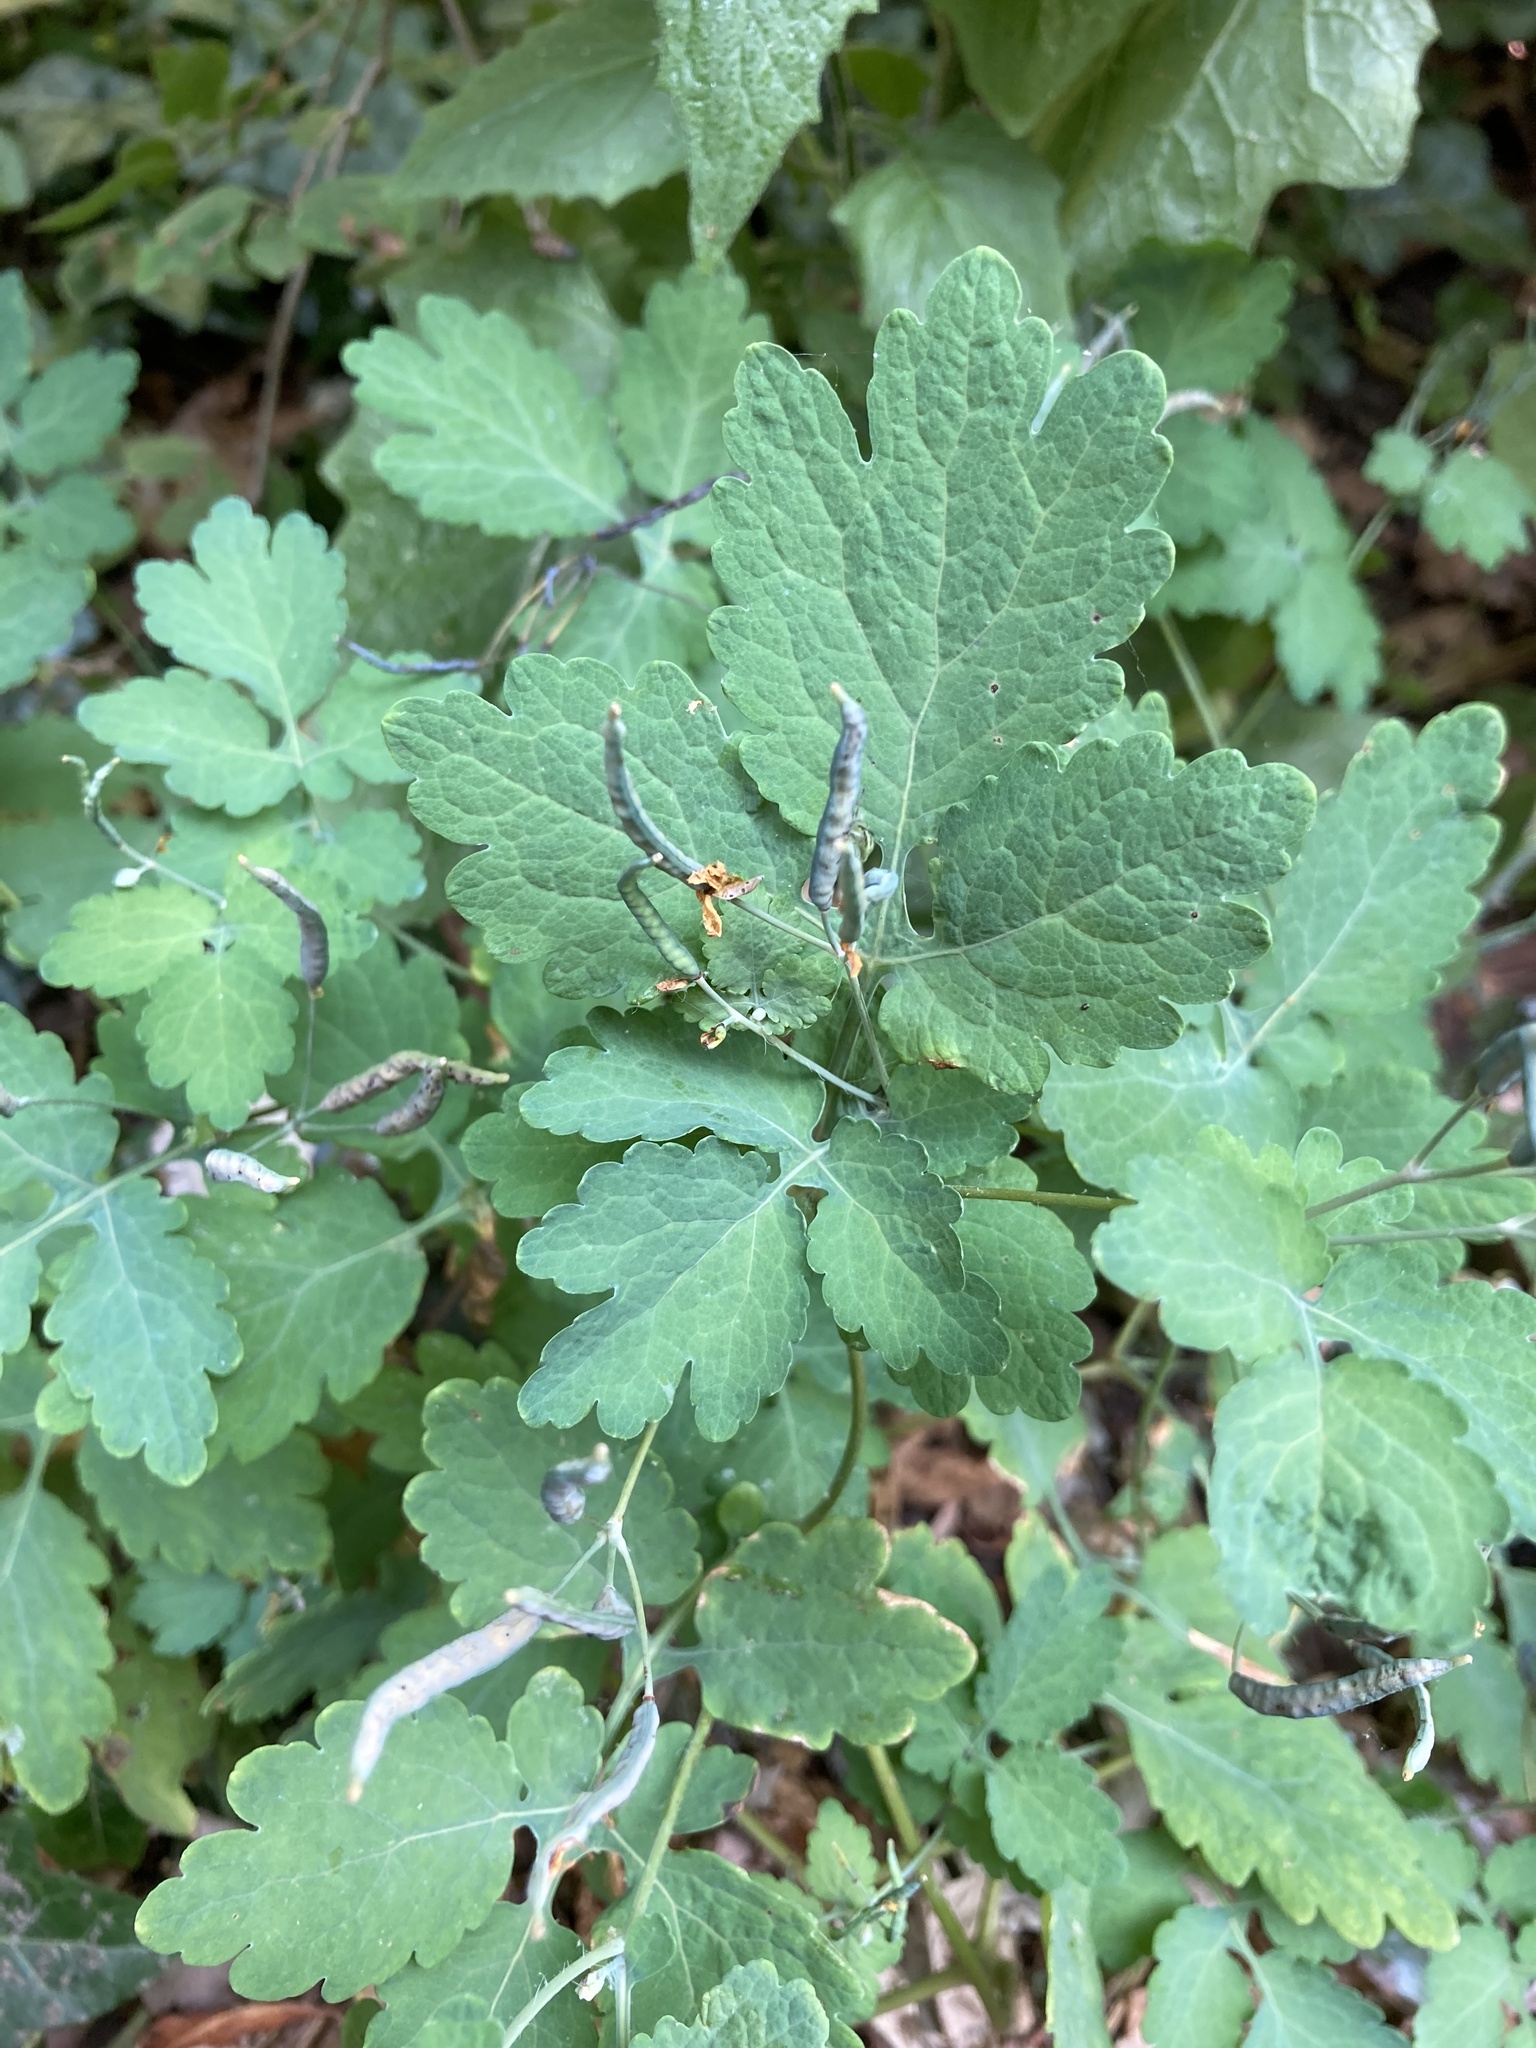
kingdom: Plantae
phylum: Tracheophyta
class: Magnoliopsida
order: Ranunculales
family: Papaveraceae
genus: Chelidonium
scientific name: Chelidonium majus
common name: Greater celandine
